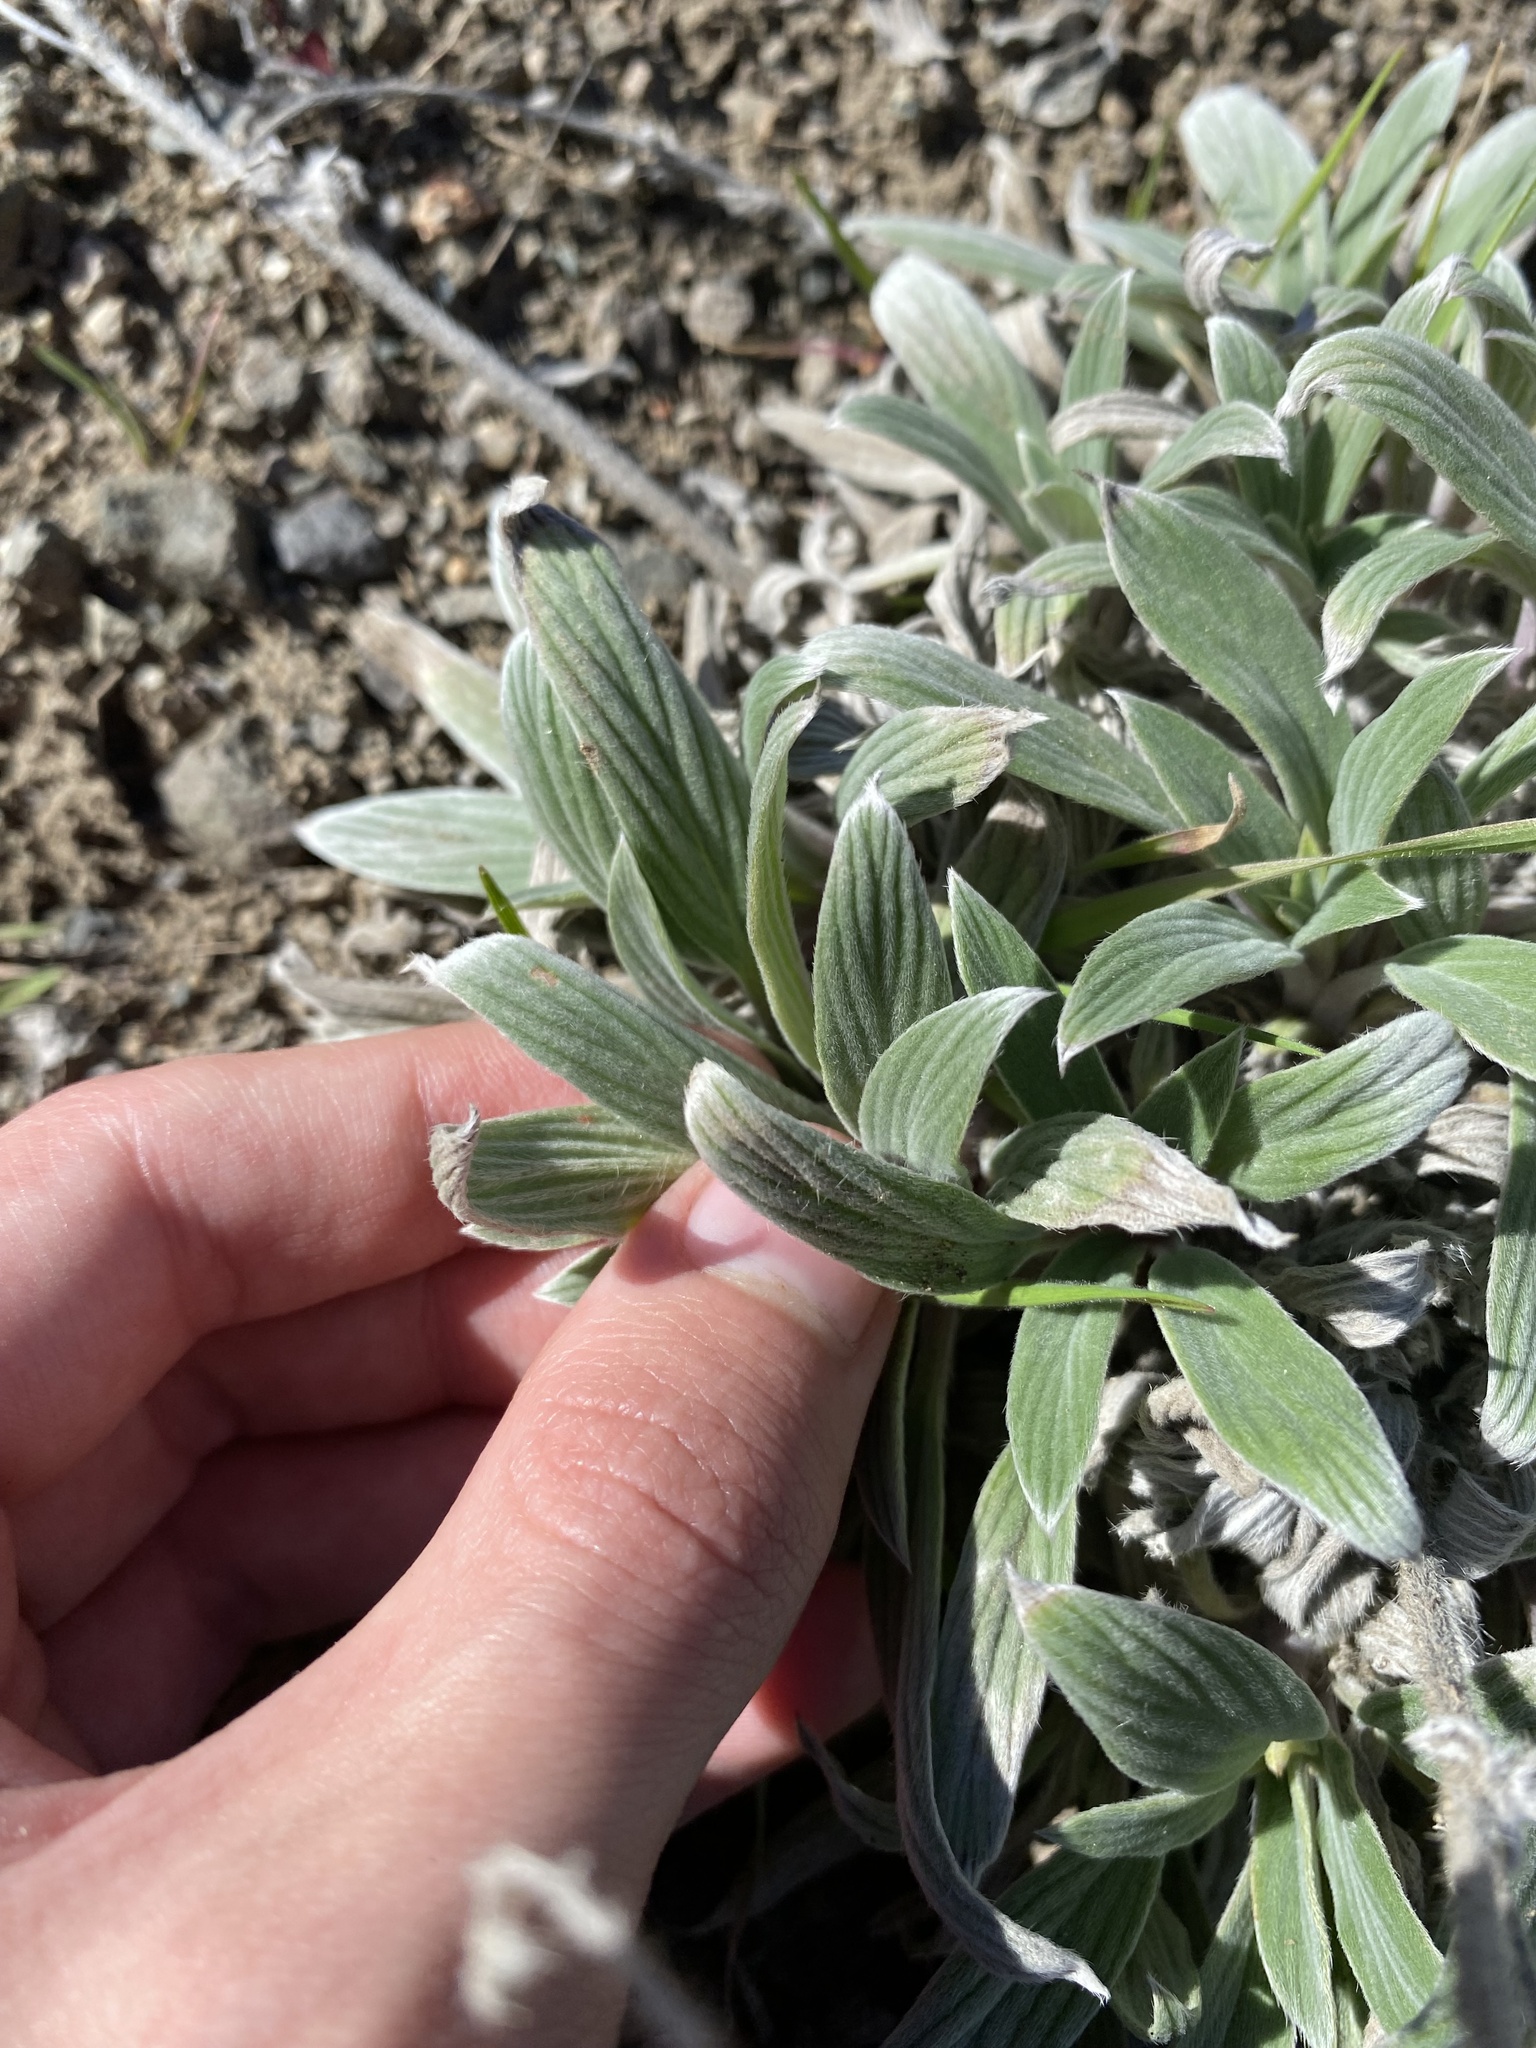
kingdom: Plantae
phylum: Tracheophyta
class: Magnoliopsida
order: Boraginales
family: Hydrophyllaceae
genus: Phacelia
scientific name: Phacelia hastata
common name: Silver-leaved phacelia
